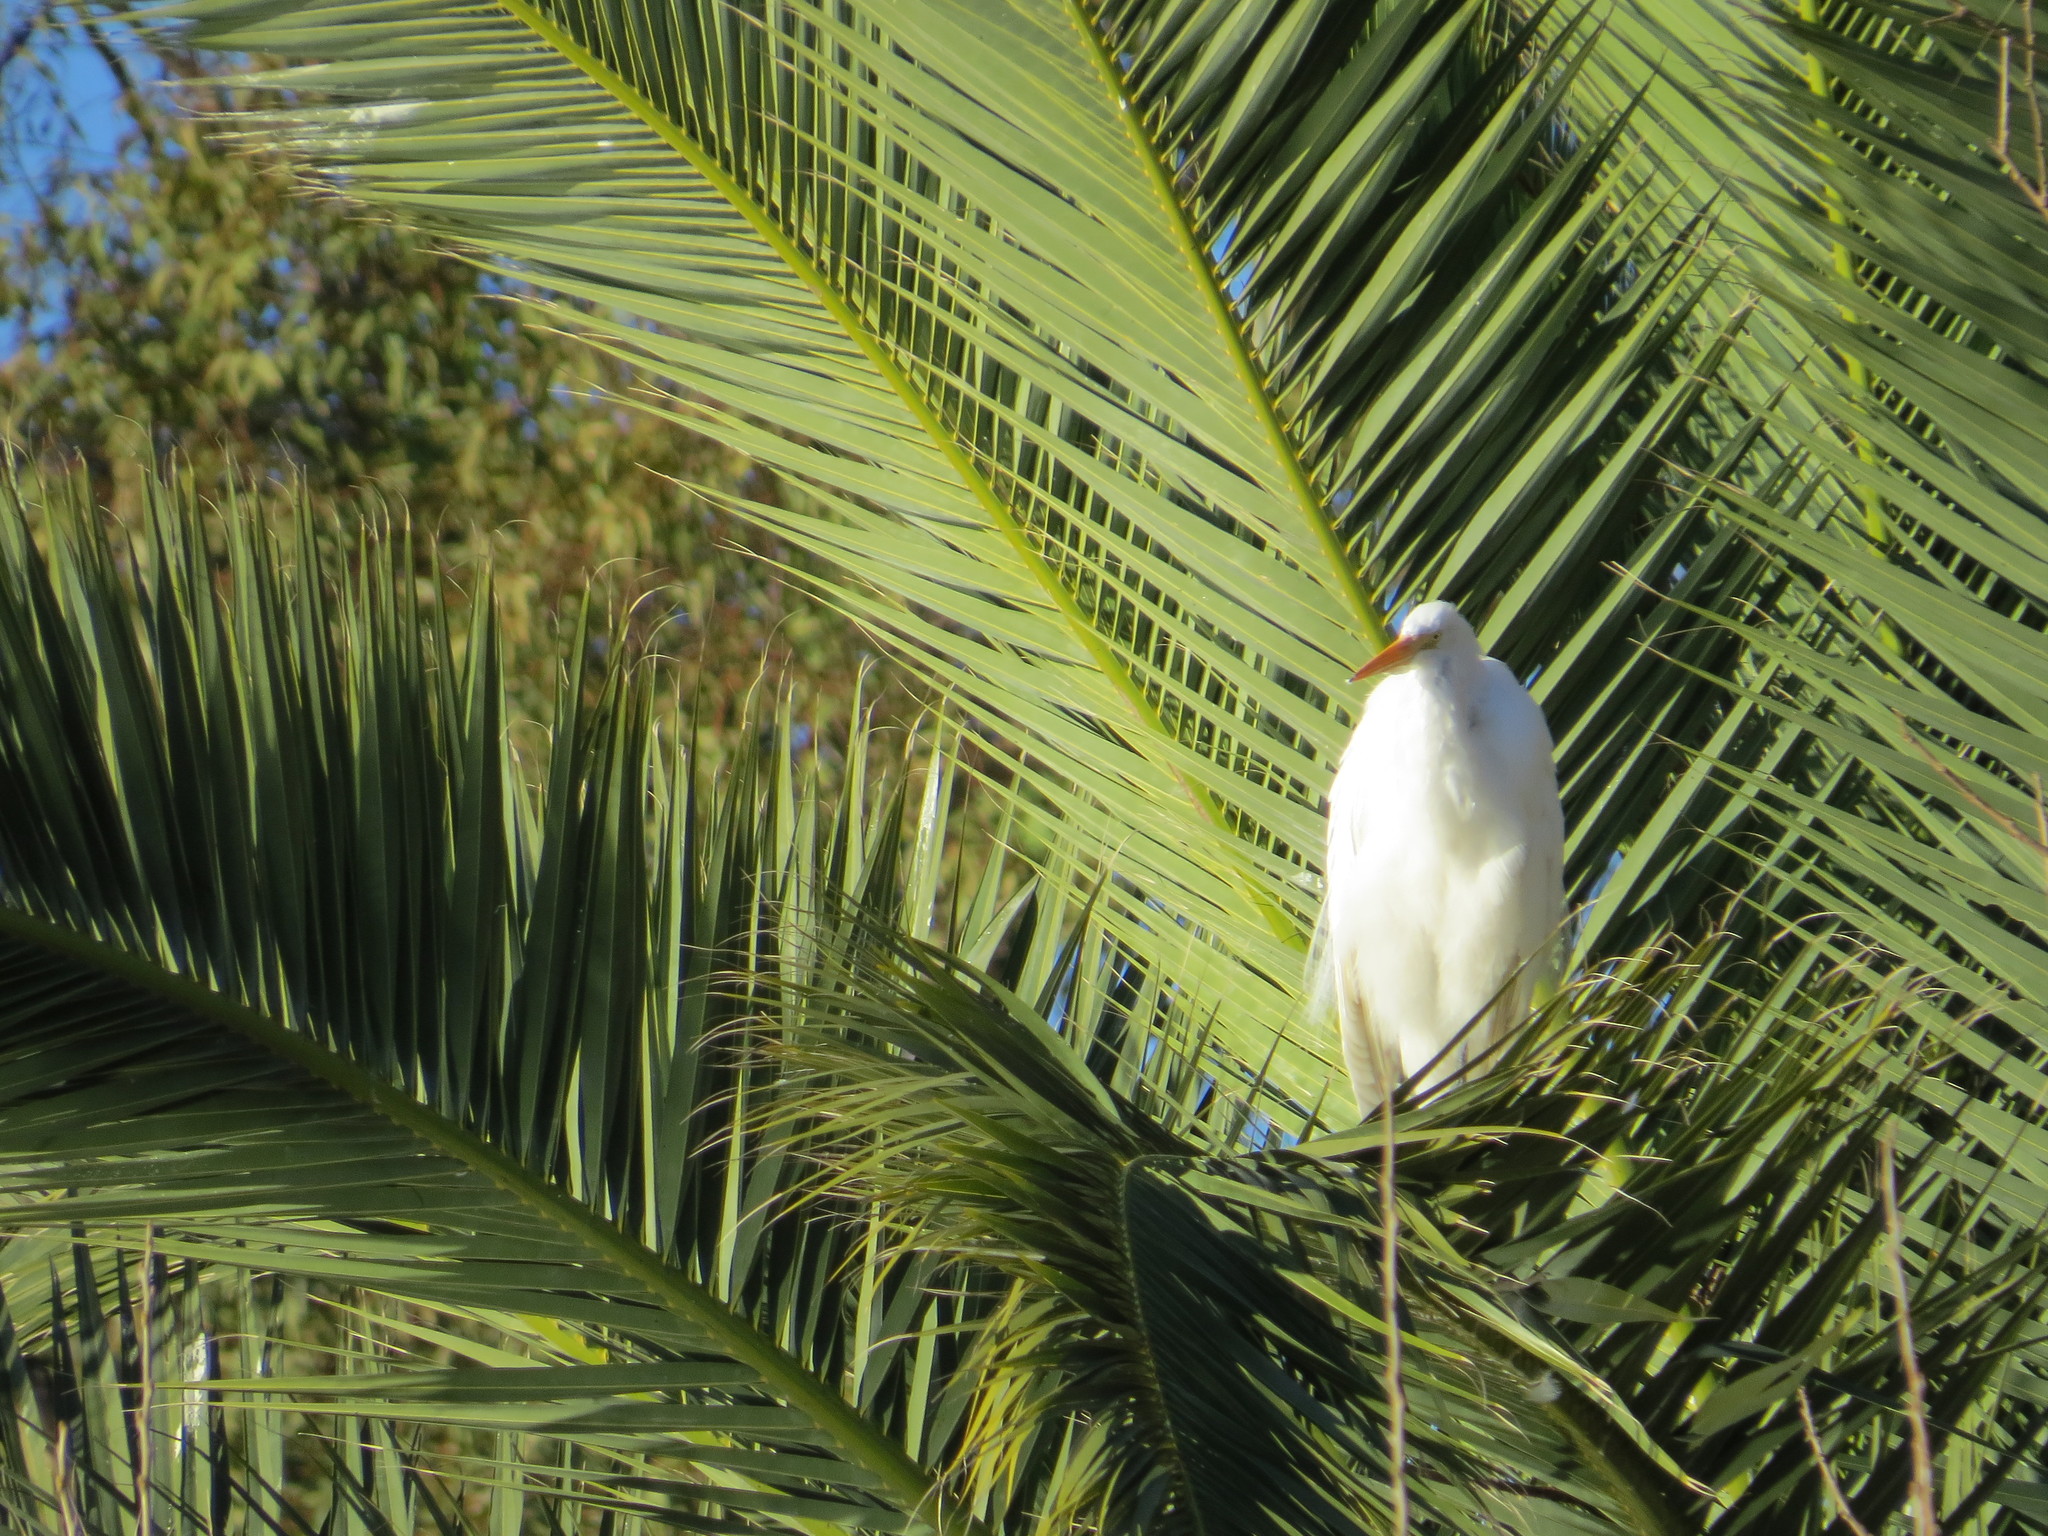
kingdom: Animalia
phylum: Chordata
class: Aves
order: Pelecaniformes
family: Ardeidae
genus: Ardea
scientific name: Ardea alba
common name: Great egret
